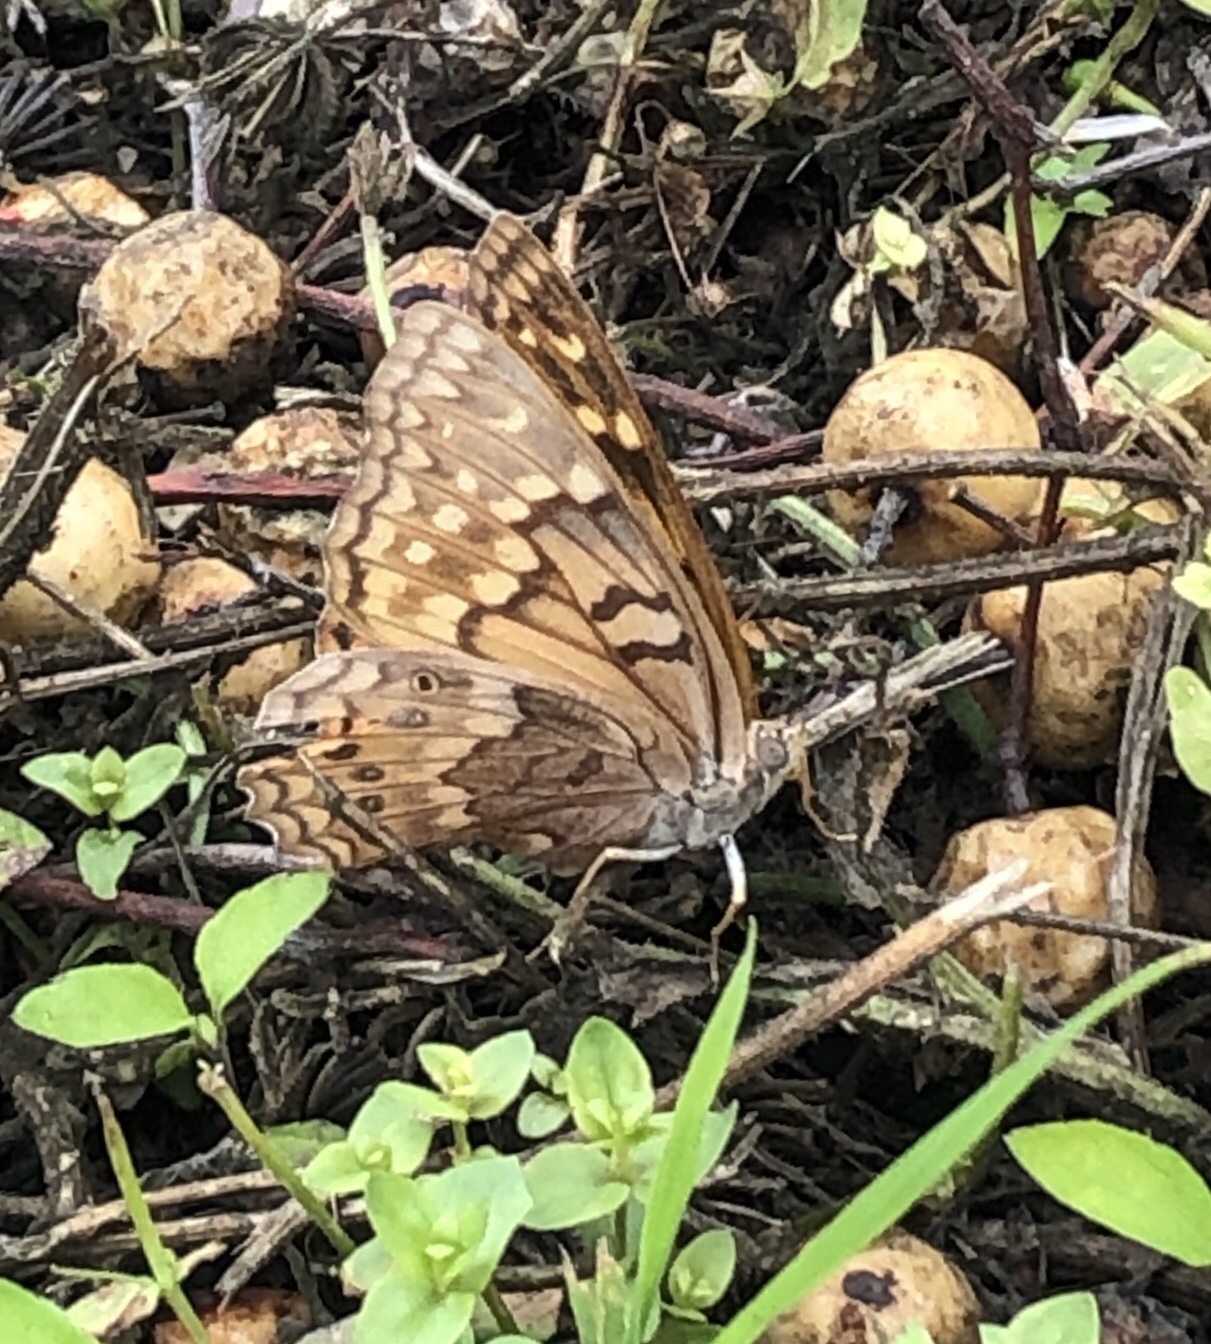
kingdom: Animalia
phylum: Arthropoda
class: Insecta
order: Lepidoptera
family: Nymphalidae
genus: Asterocampa
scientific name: Asterocampa clyton
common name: Tawny emperor
